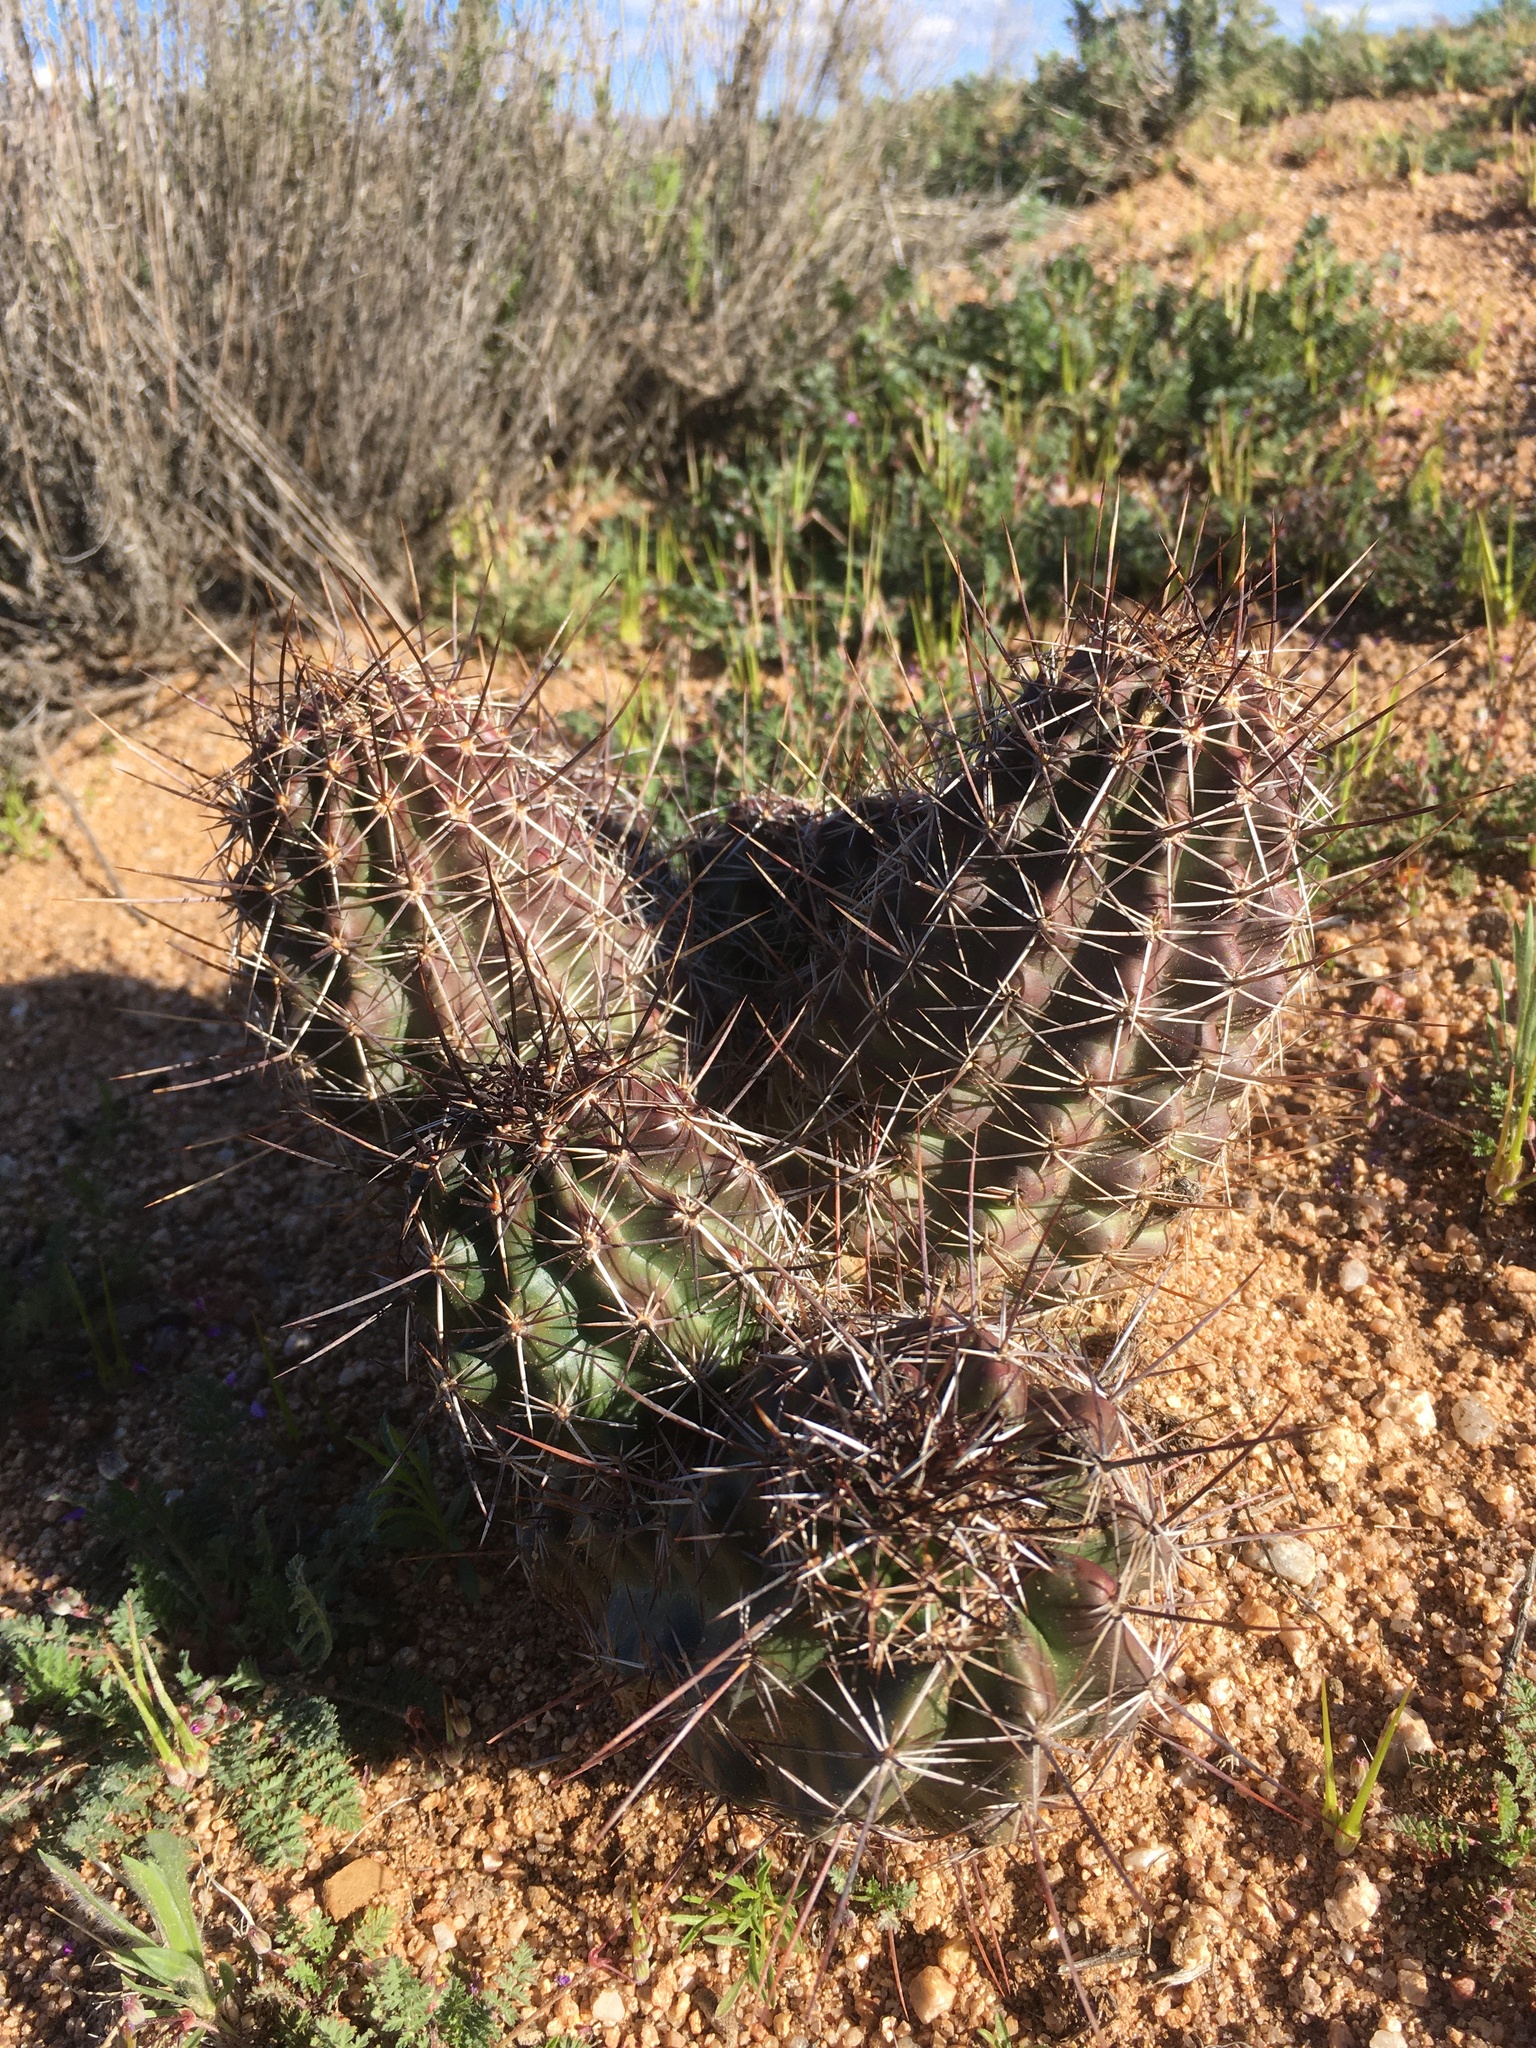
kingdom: Plantae
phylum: Tracheophyta
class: Magnoliopsida
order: Caryophyllales
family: Cactaceae
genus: Echinocereus
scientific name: Echinocereus fendleri
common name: Fendler's hedgehog cactus
